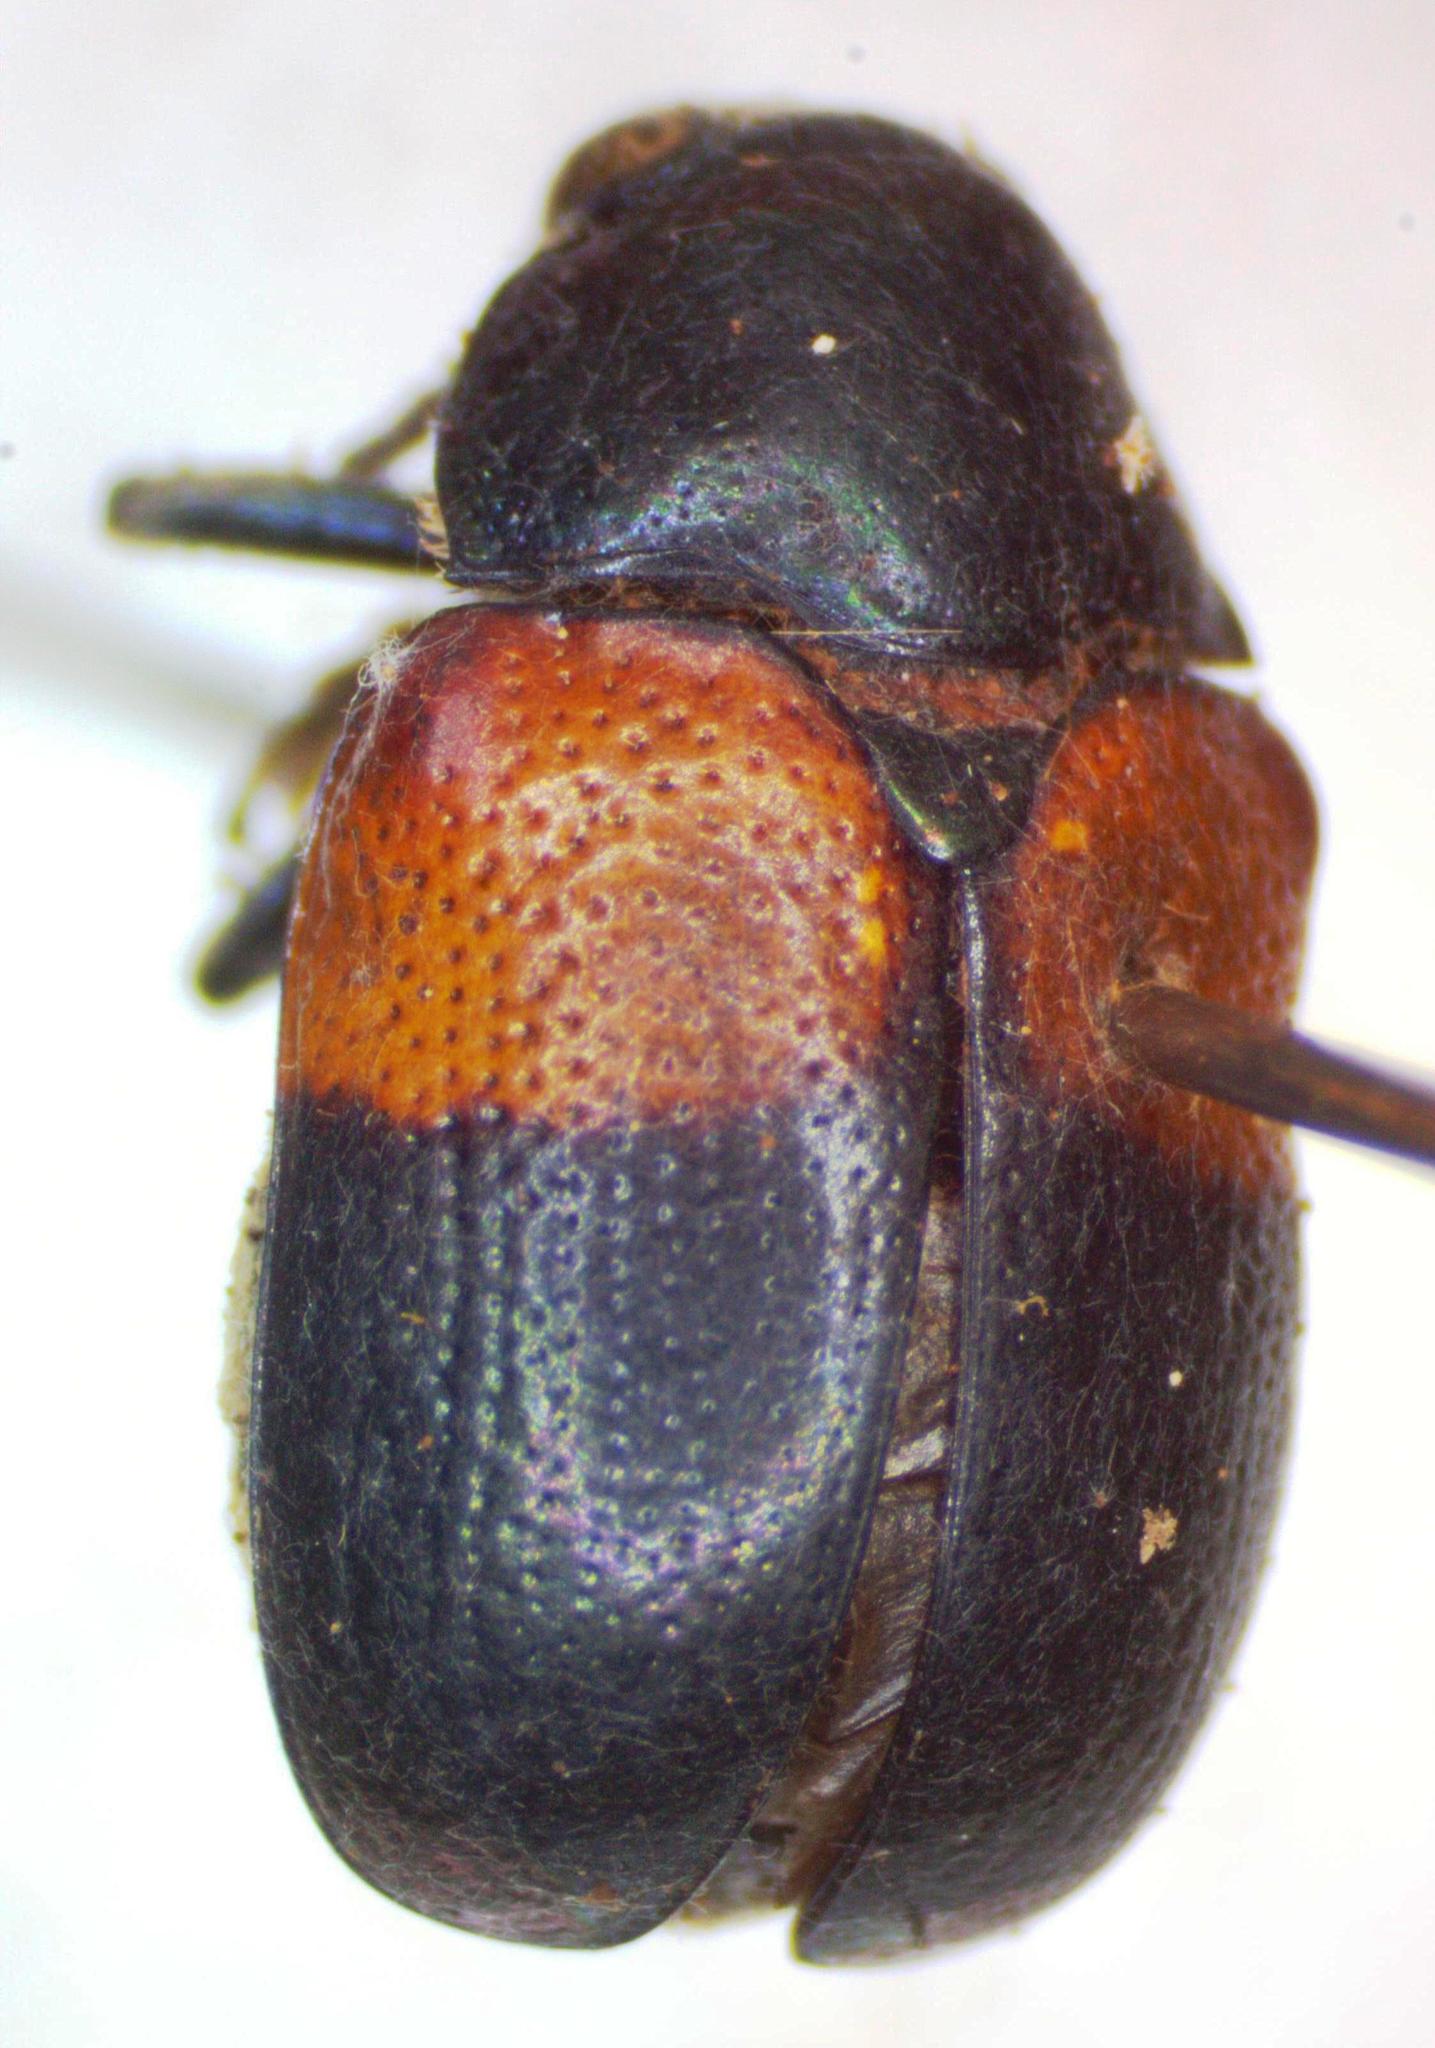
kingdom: Animalia
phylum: Arthropoda
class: Insecta
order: Coleoptera
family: Chrysomelidae
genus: Megalostomis
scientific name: Megalostomis pyropyga
